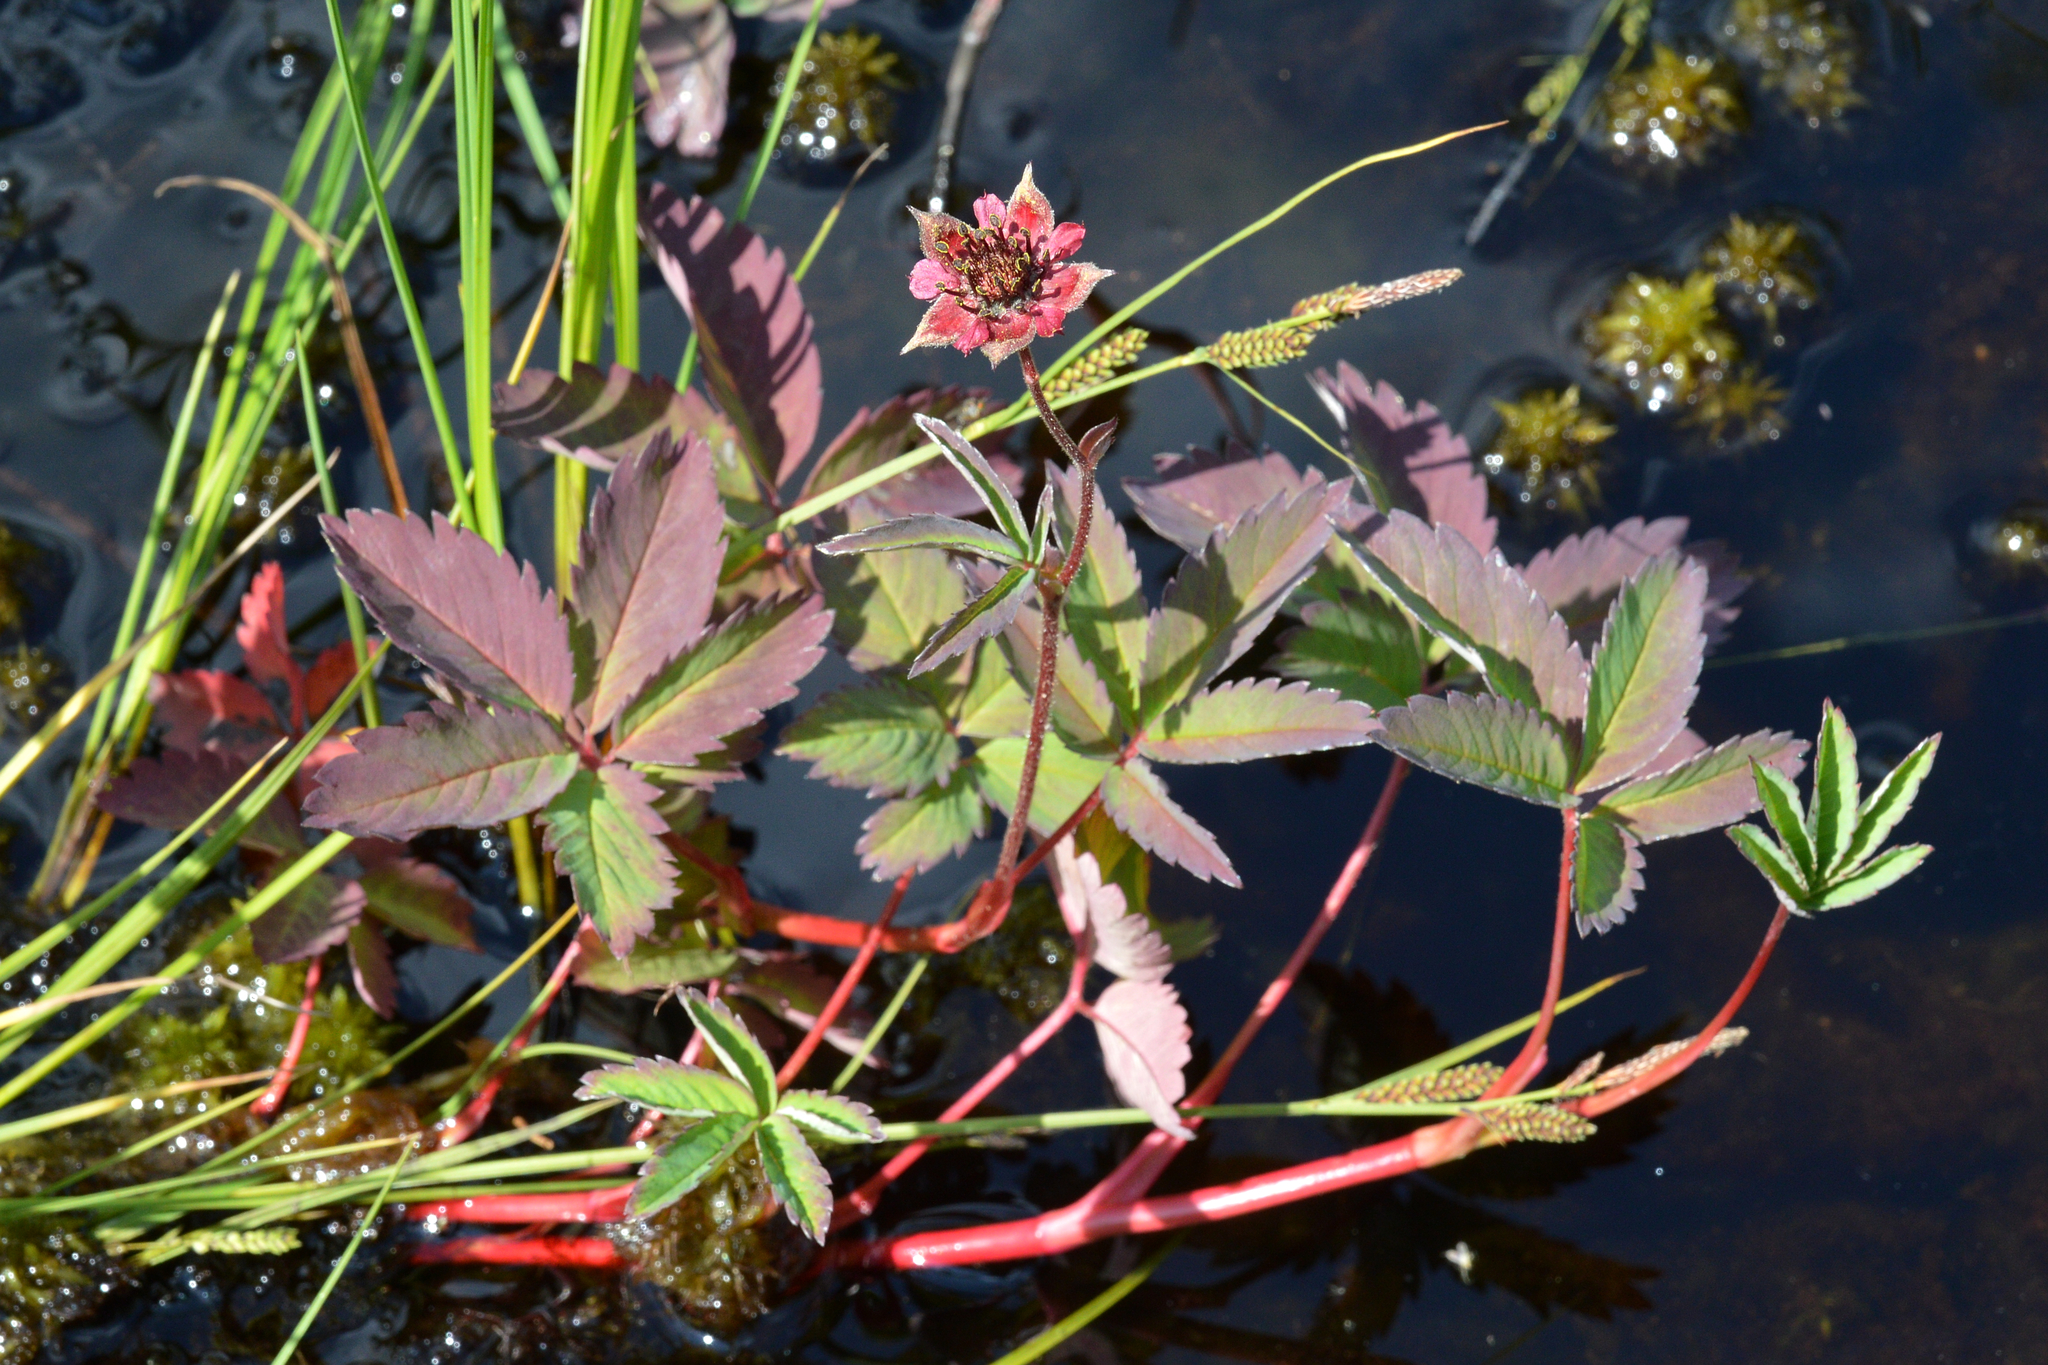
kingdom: Plantae
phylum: Tracheophyta
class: Magnoliopsida
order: Rosales
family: Rosaceae
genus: Comarum
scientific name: Comarum palustre
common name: Marsh cinquefoil
